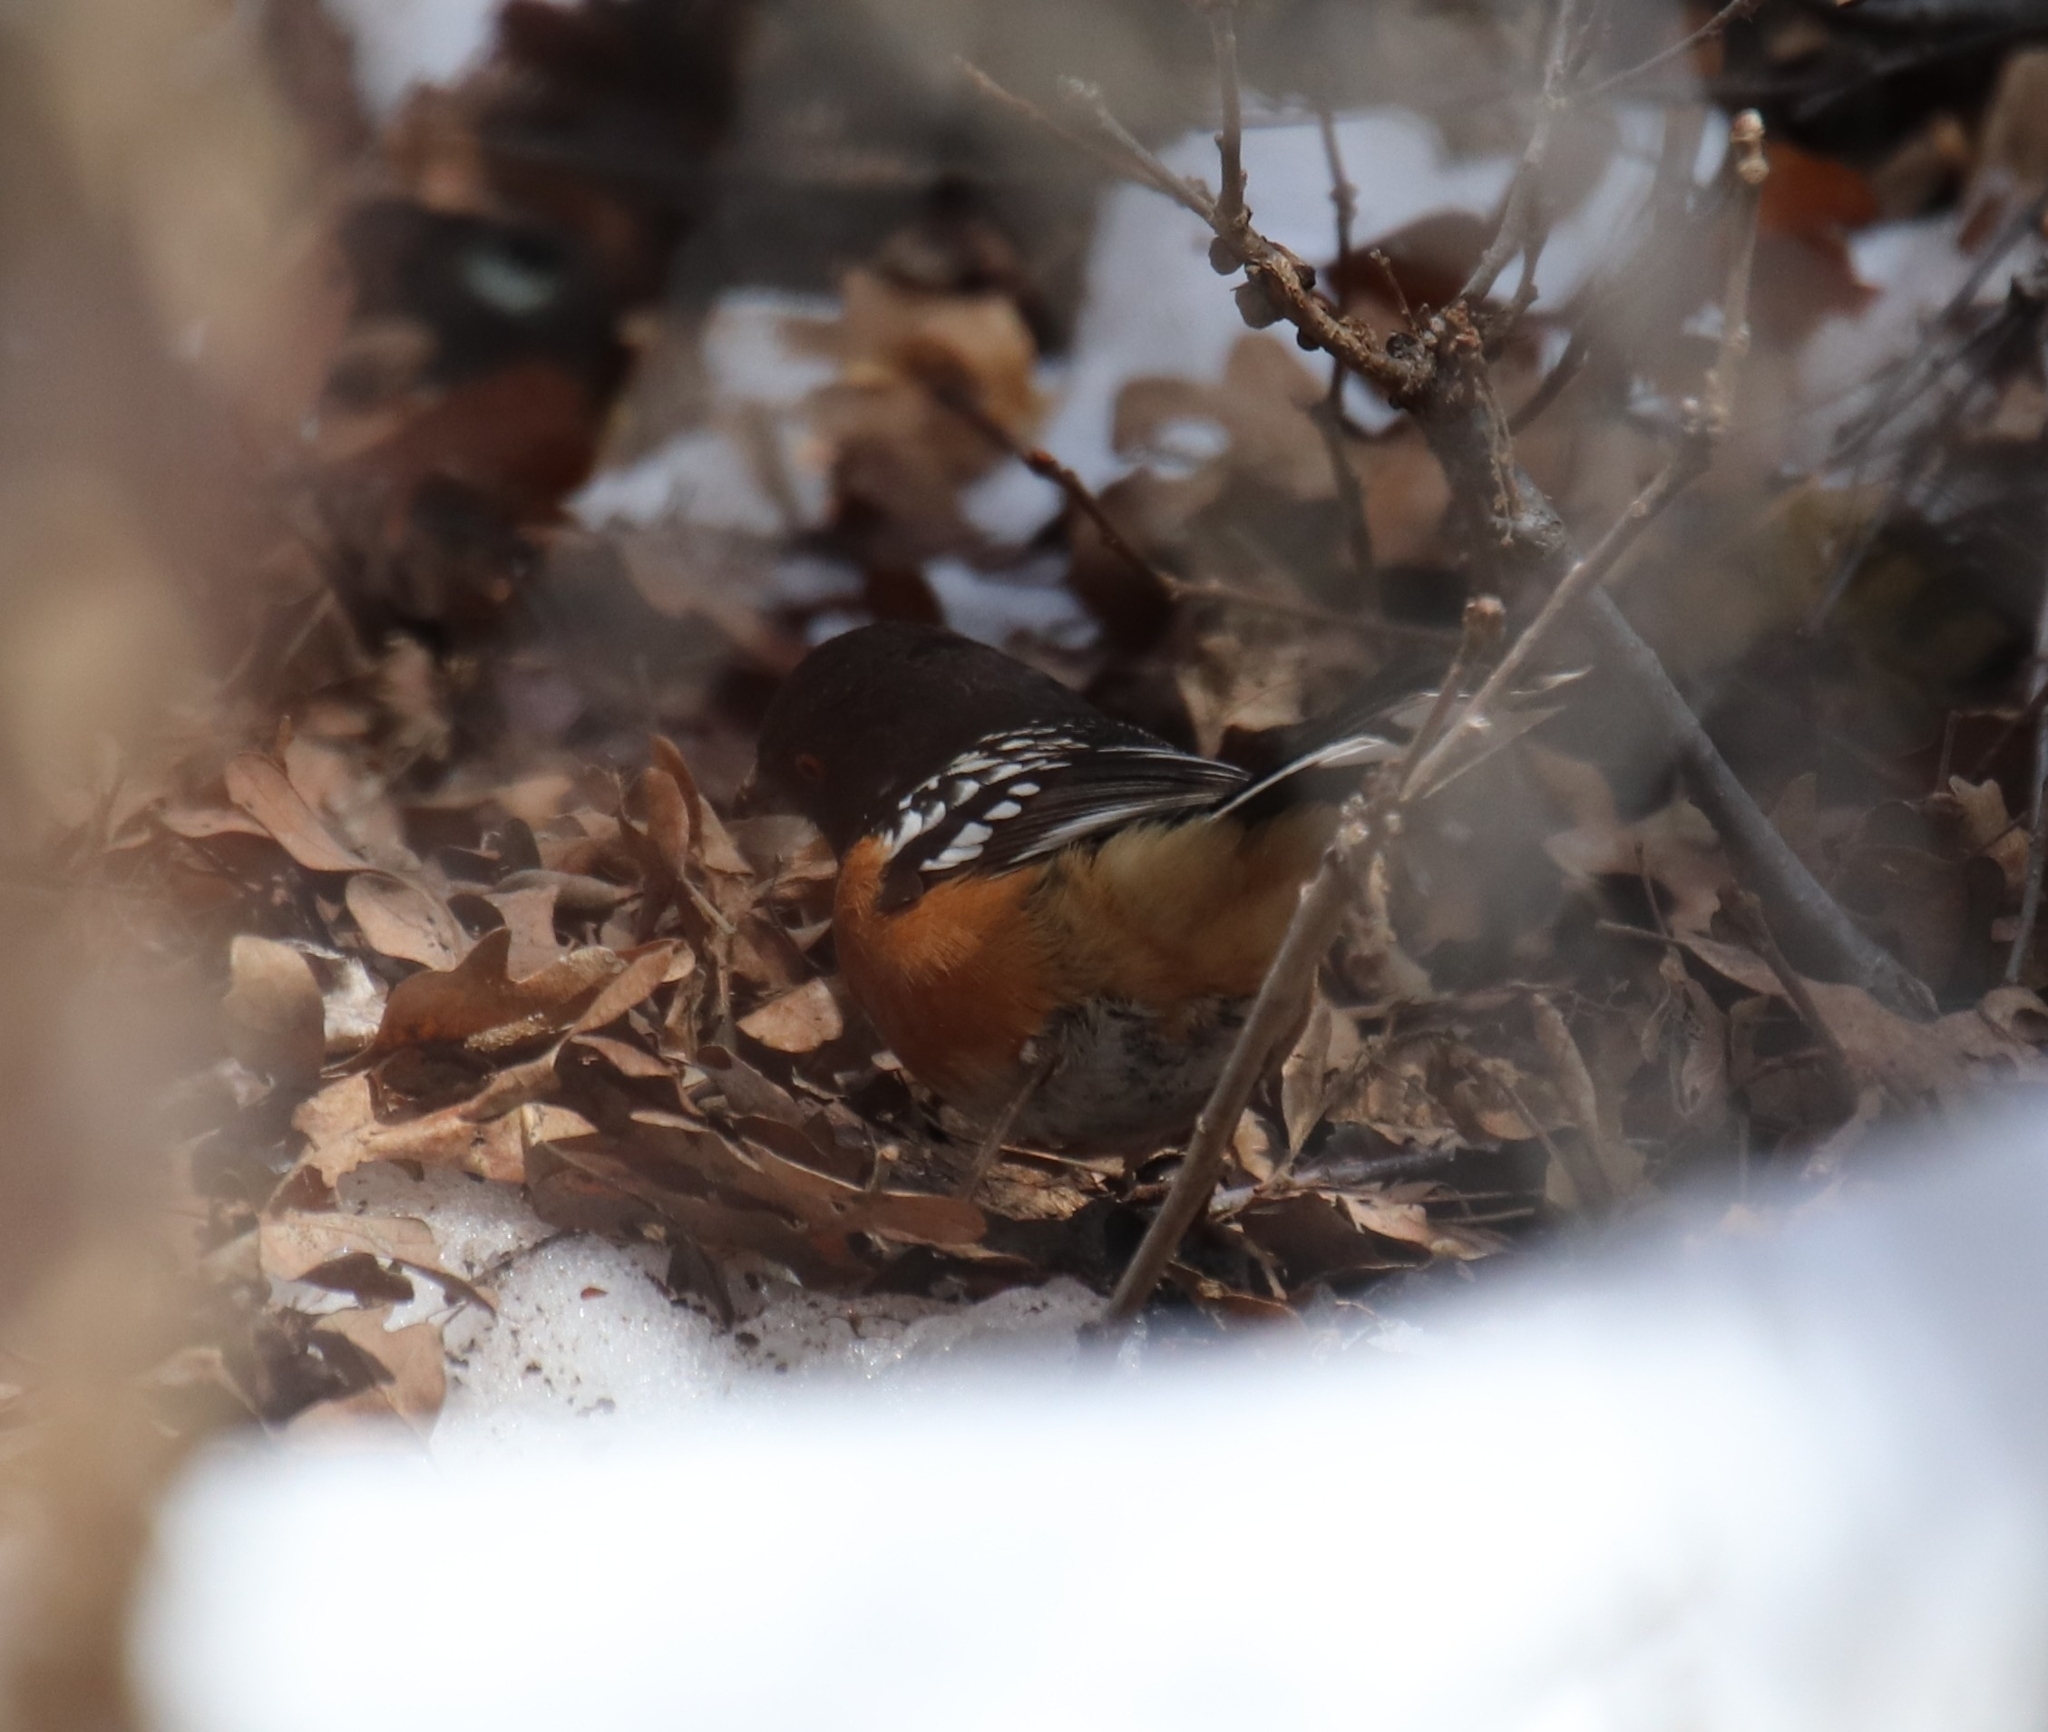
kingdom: Animalia
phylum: Chordata
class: Aves
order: Passeriformes
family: Passerellidae
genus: Pipilo
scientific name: Pipilo maculatus
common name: Spotted towhee
